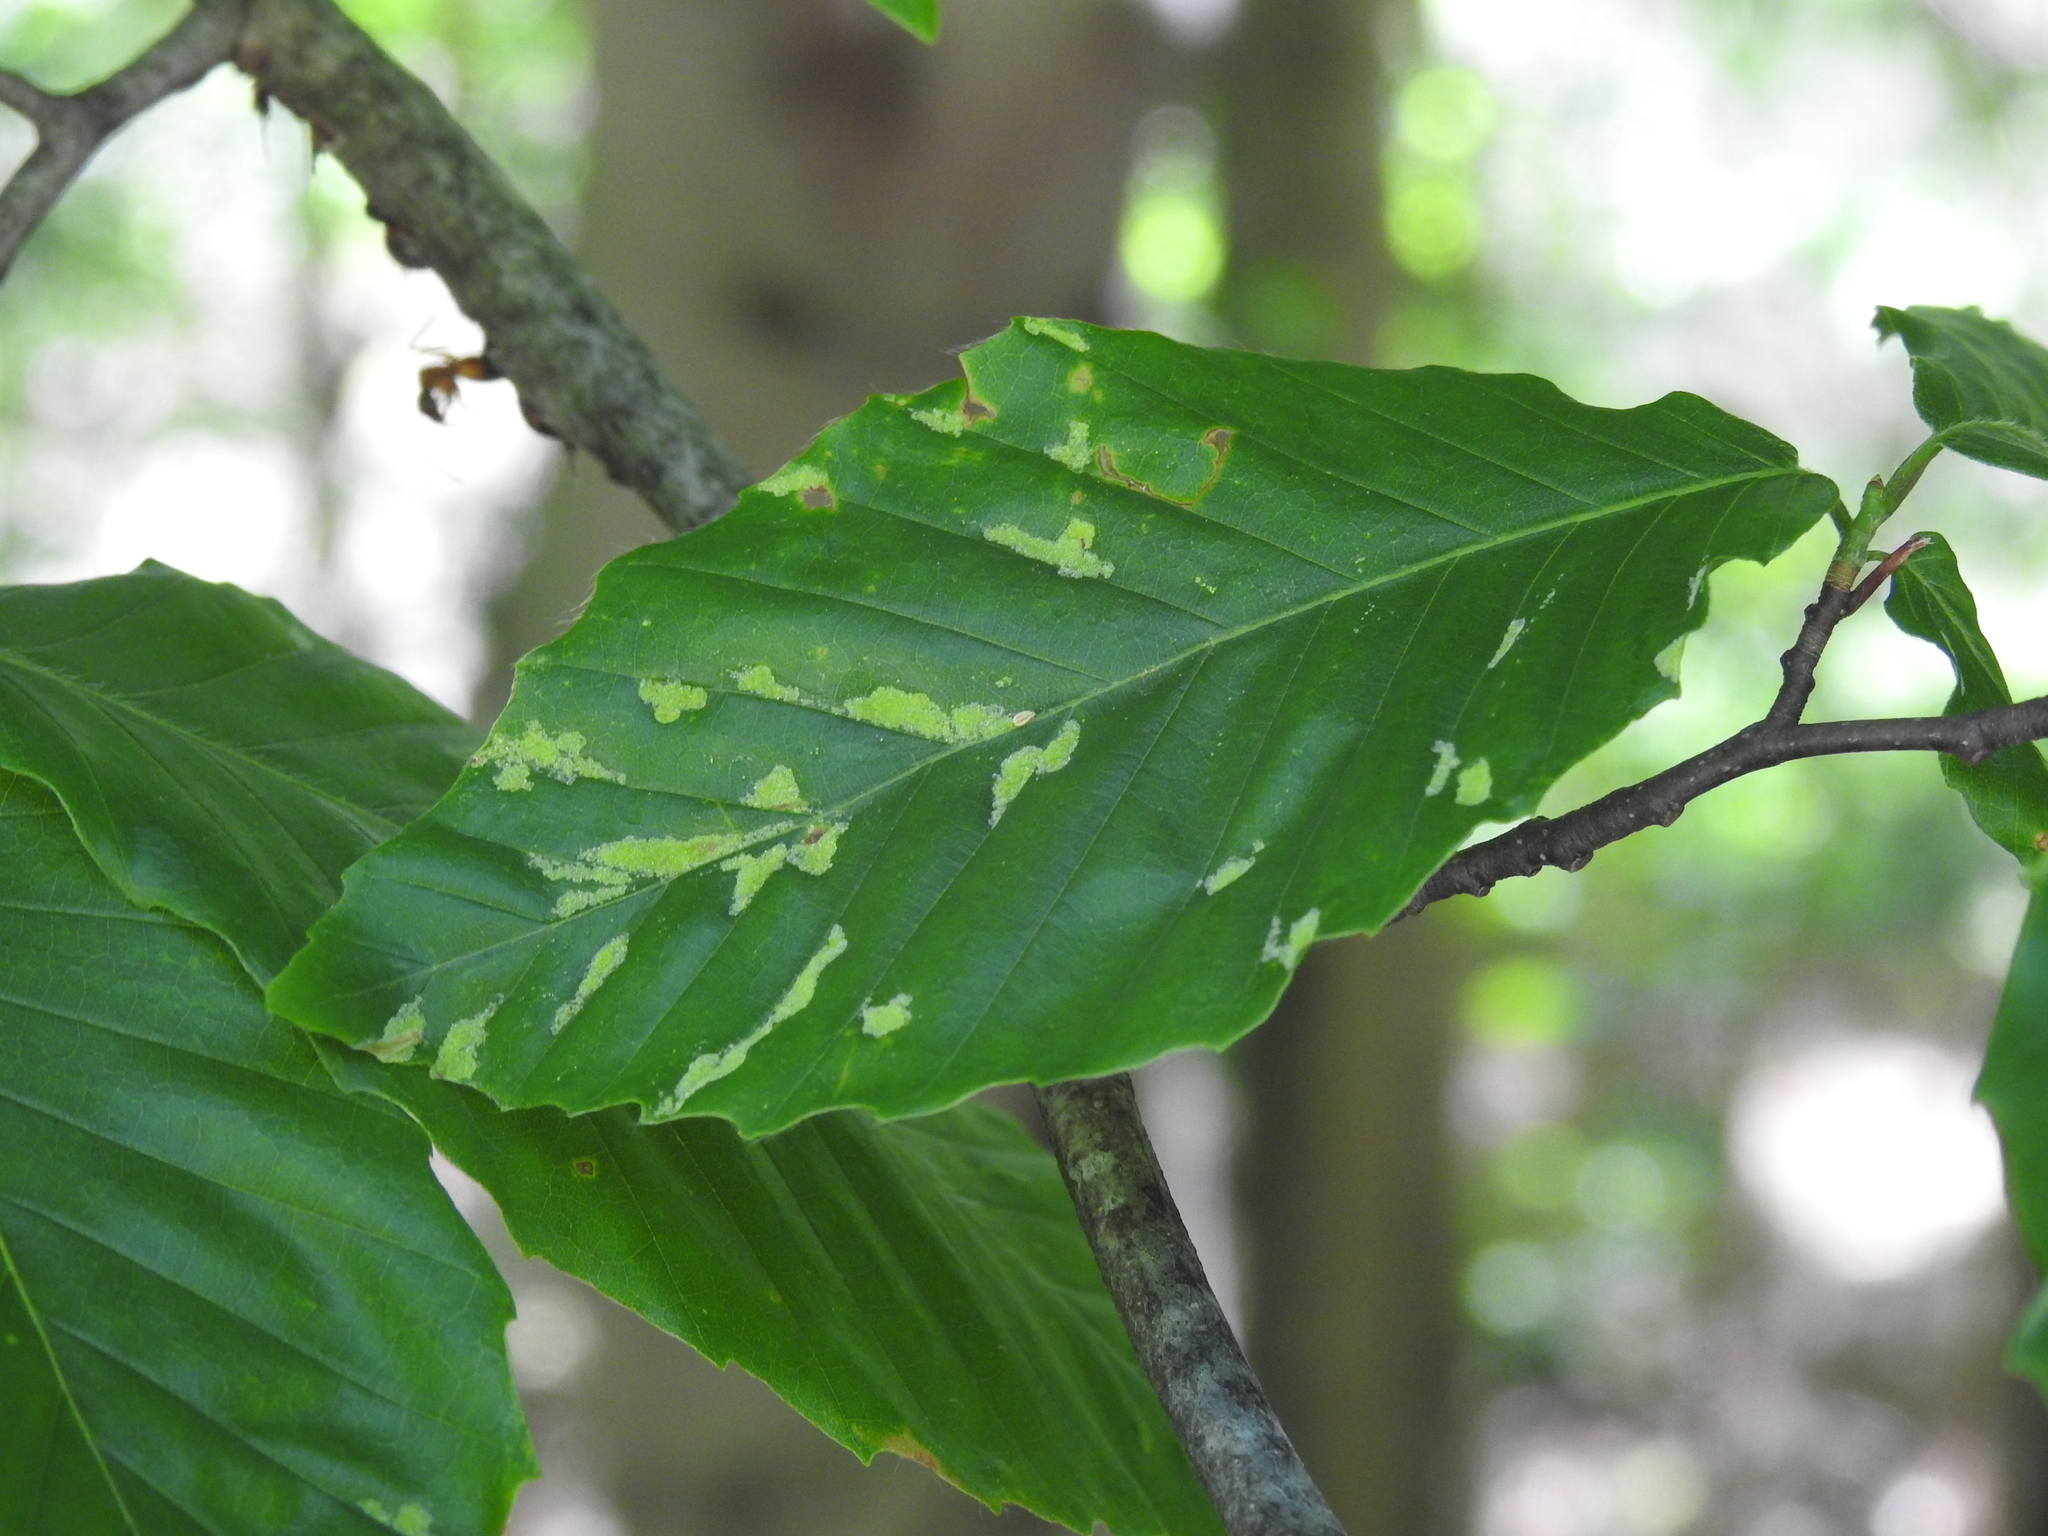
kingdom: Animalia
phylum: Arthropoda
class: Arachnida
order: Trombidiformes
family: Eriophyidae
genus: Acalitus
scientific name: Acalitus
